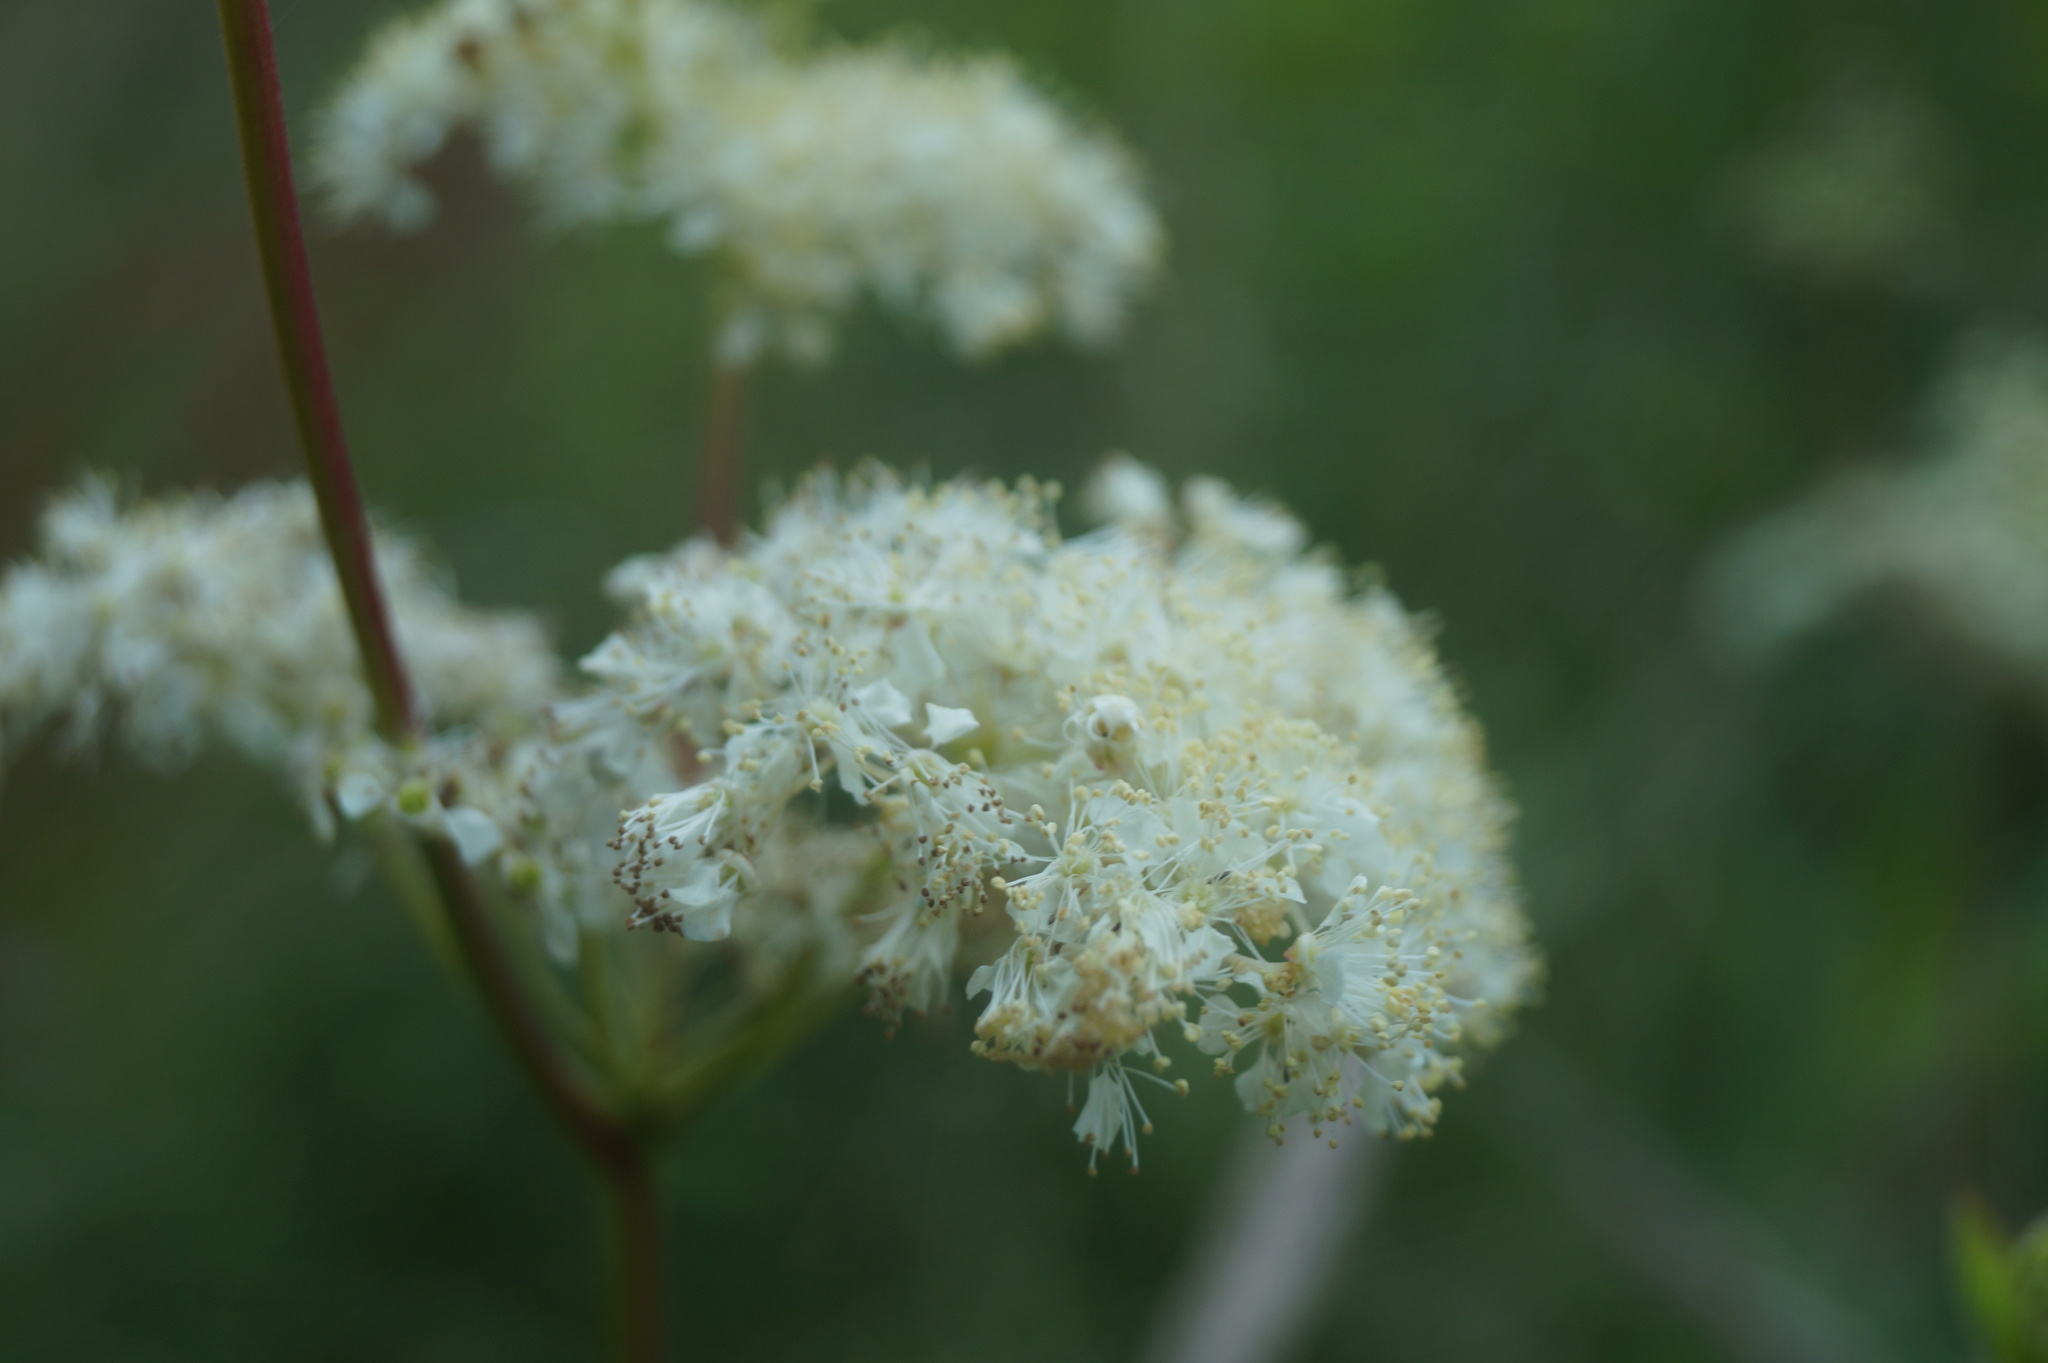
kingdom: Plantae
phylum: Tracheophyta
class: Magnoliopsida
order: Rosales
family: Rosaceae
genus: Filipendula
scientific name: Filipendula ulmaria
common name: Meadowsweet
